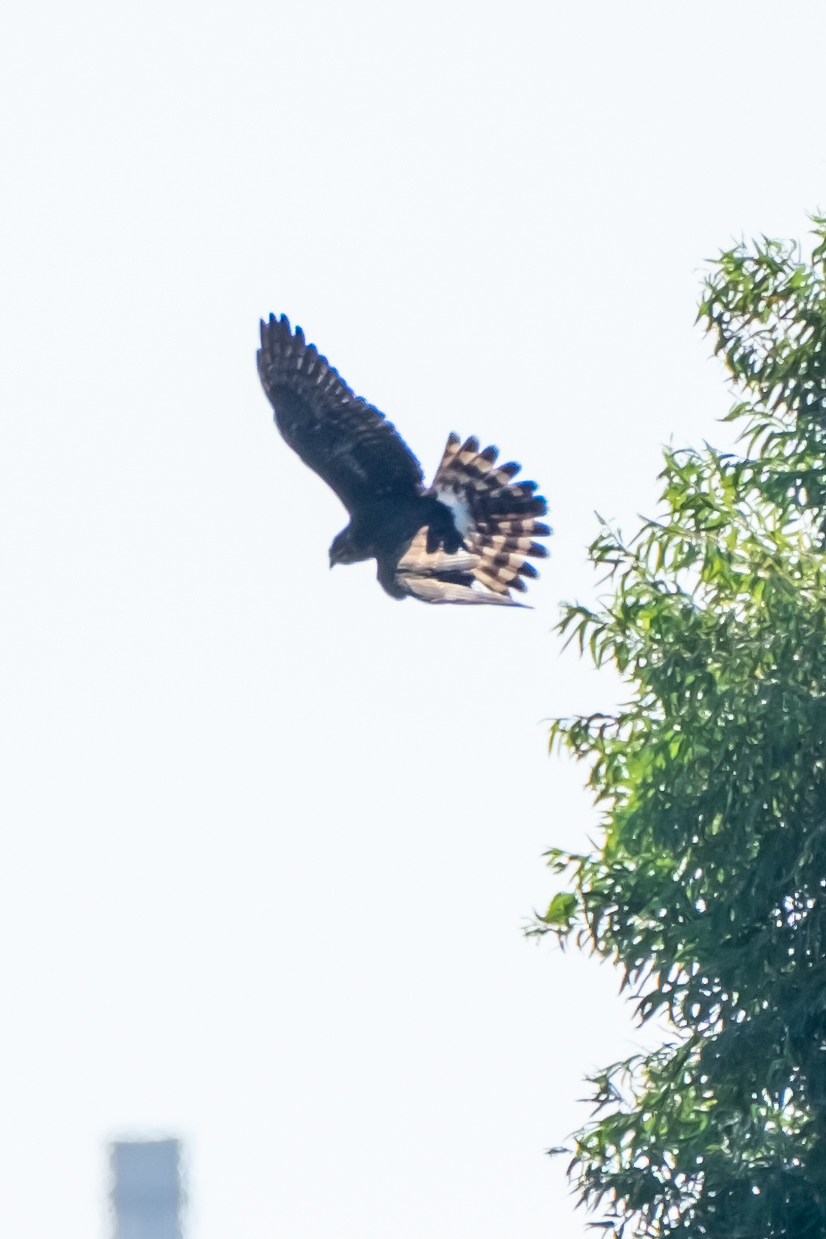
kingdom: Animalia
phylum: Chordata
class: Aves
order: Accipitriformes
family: Accipitridae
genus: Circus
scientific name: Circus cyaneus
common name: Hen harrier
